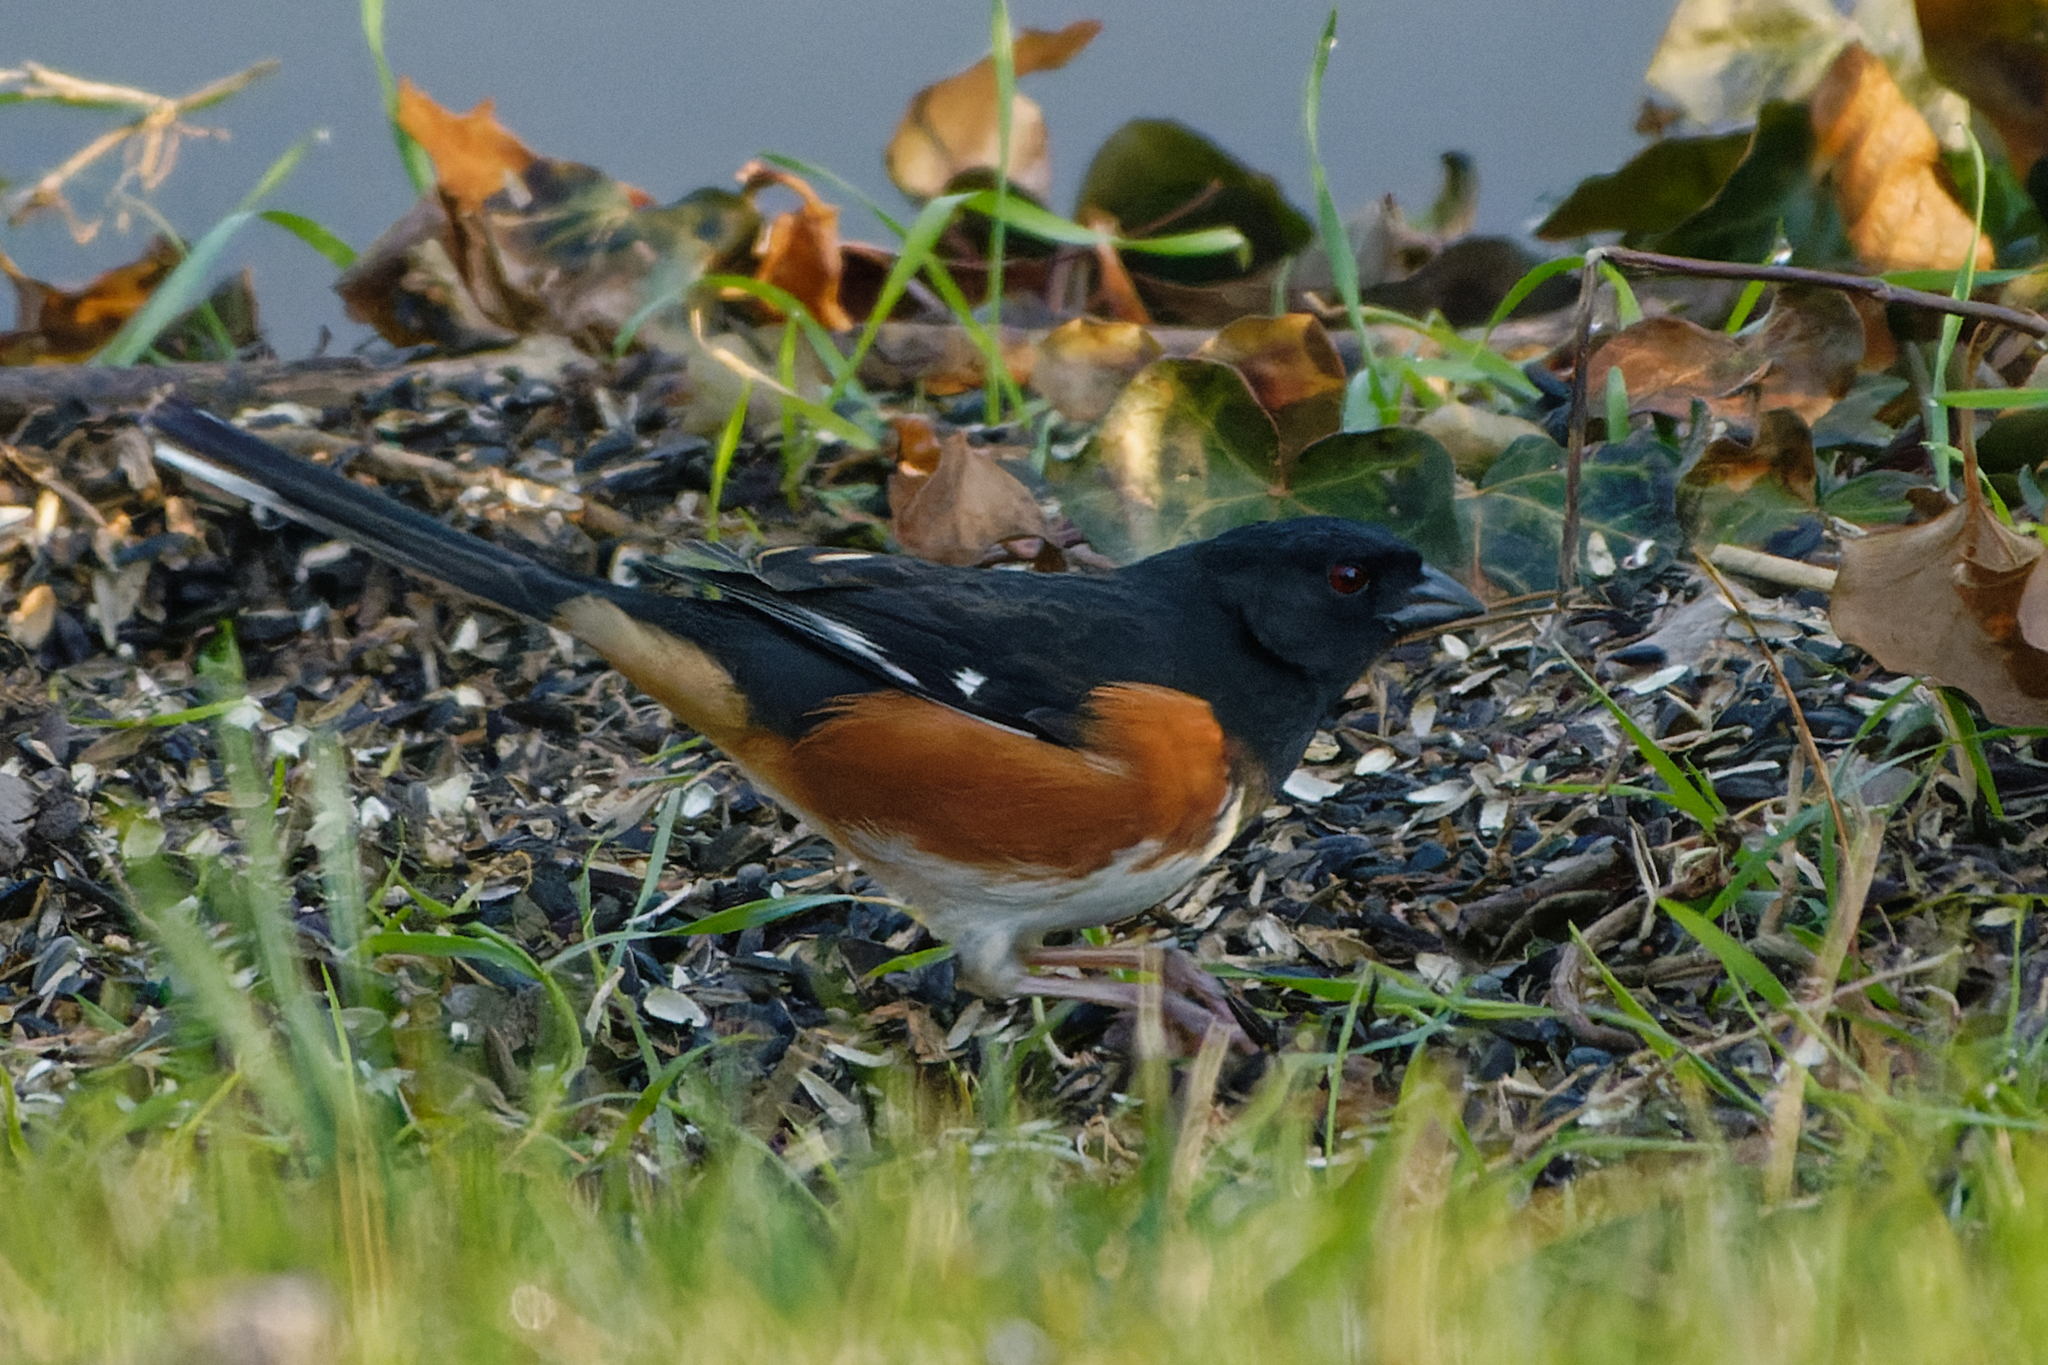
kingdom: Animalia
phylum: Chordata
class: Aves
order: Passeriformes
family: Passerellidae
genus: Pipilo
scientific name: Pipilo erythrophthalmus
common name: Eastern towhee
